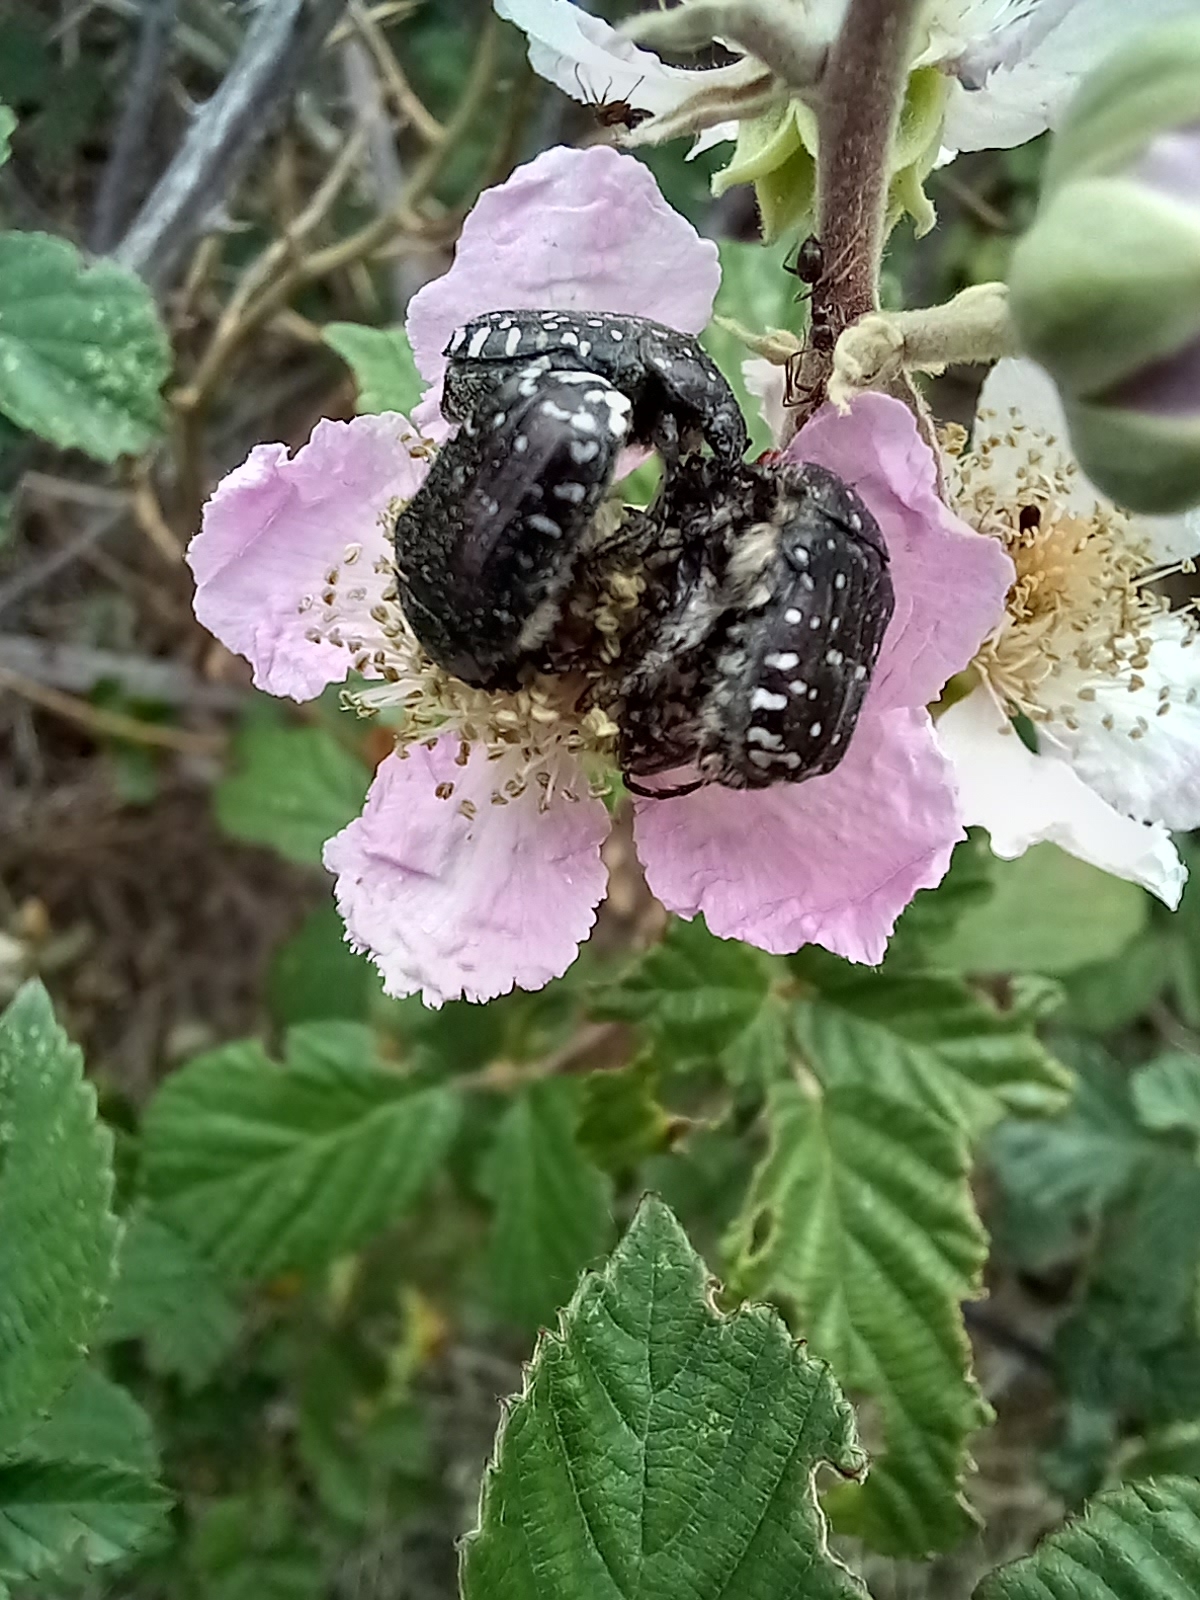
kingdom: Animalia
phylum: Arthropoda
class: Insecta
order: Coleoptera
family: Scarabaeidae
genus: Oxythyrea
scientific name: Oxythyrea funesta
